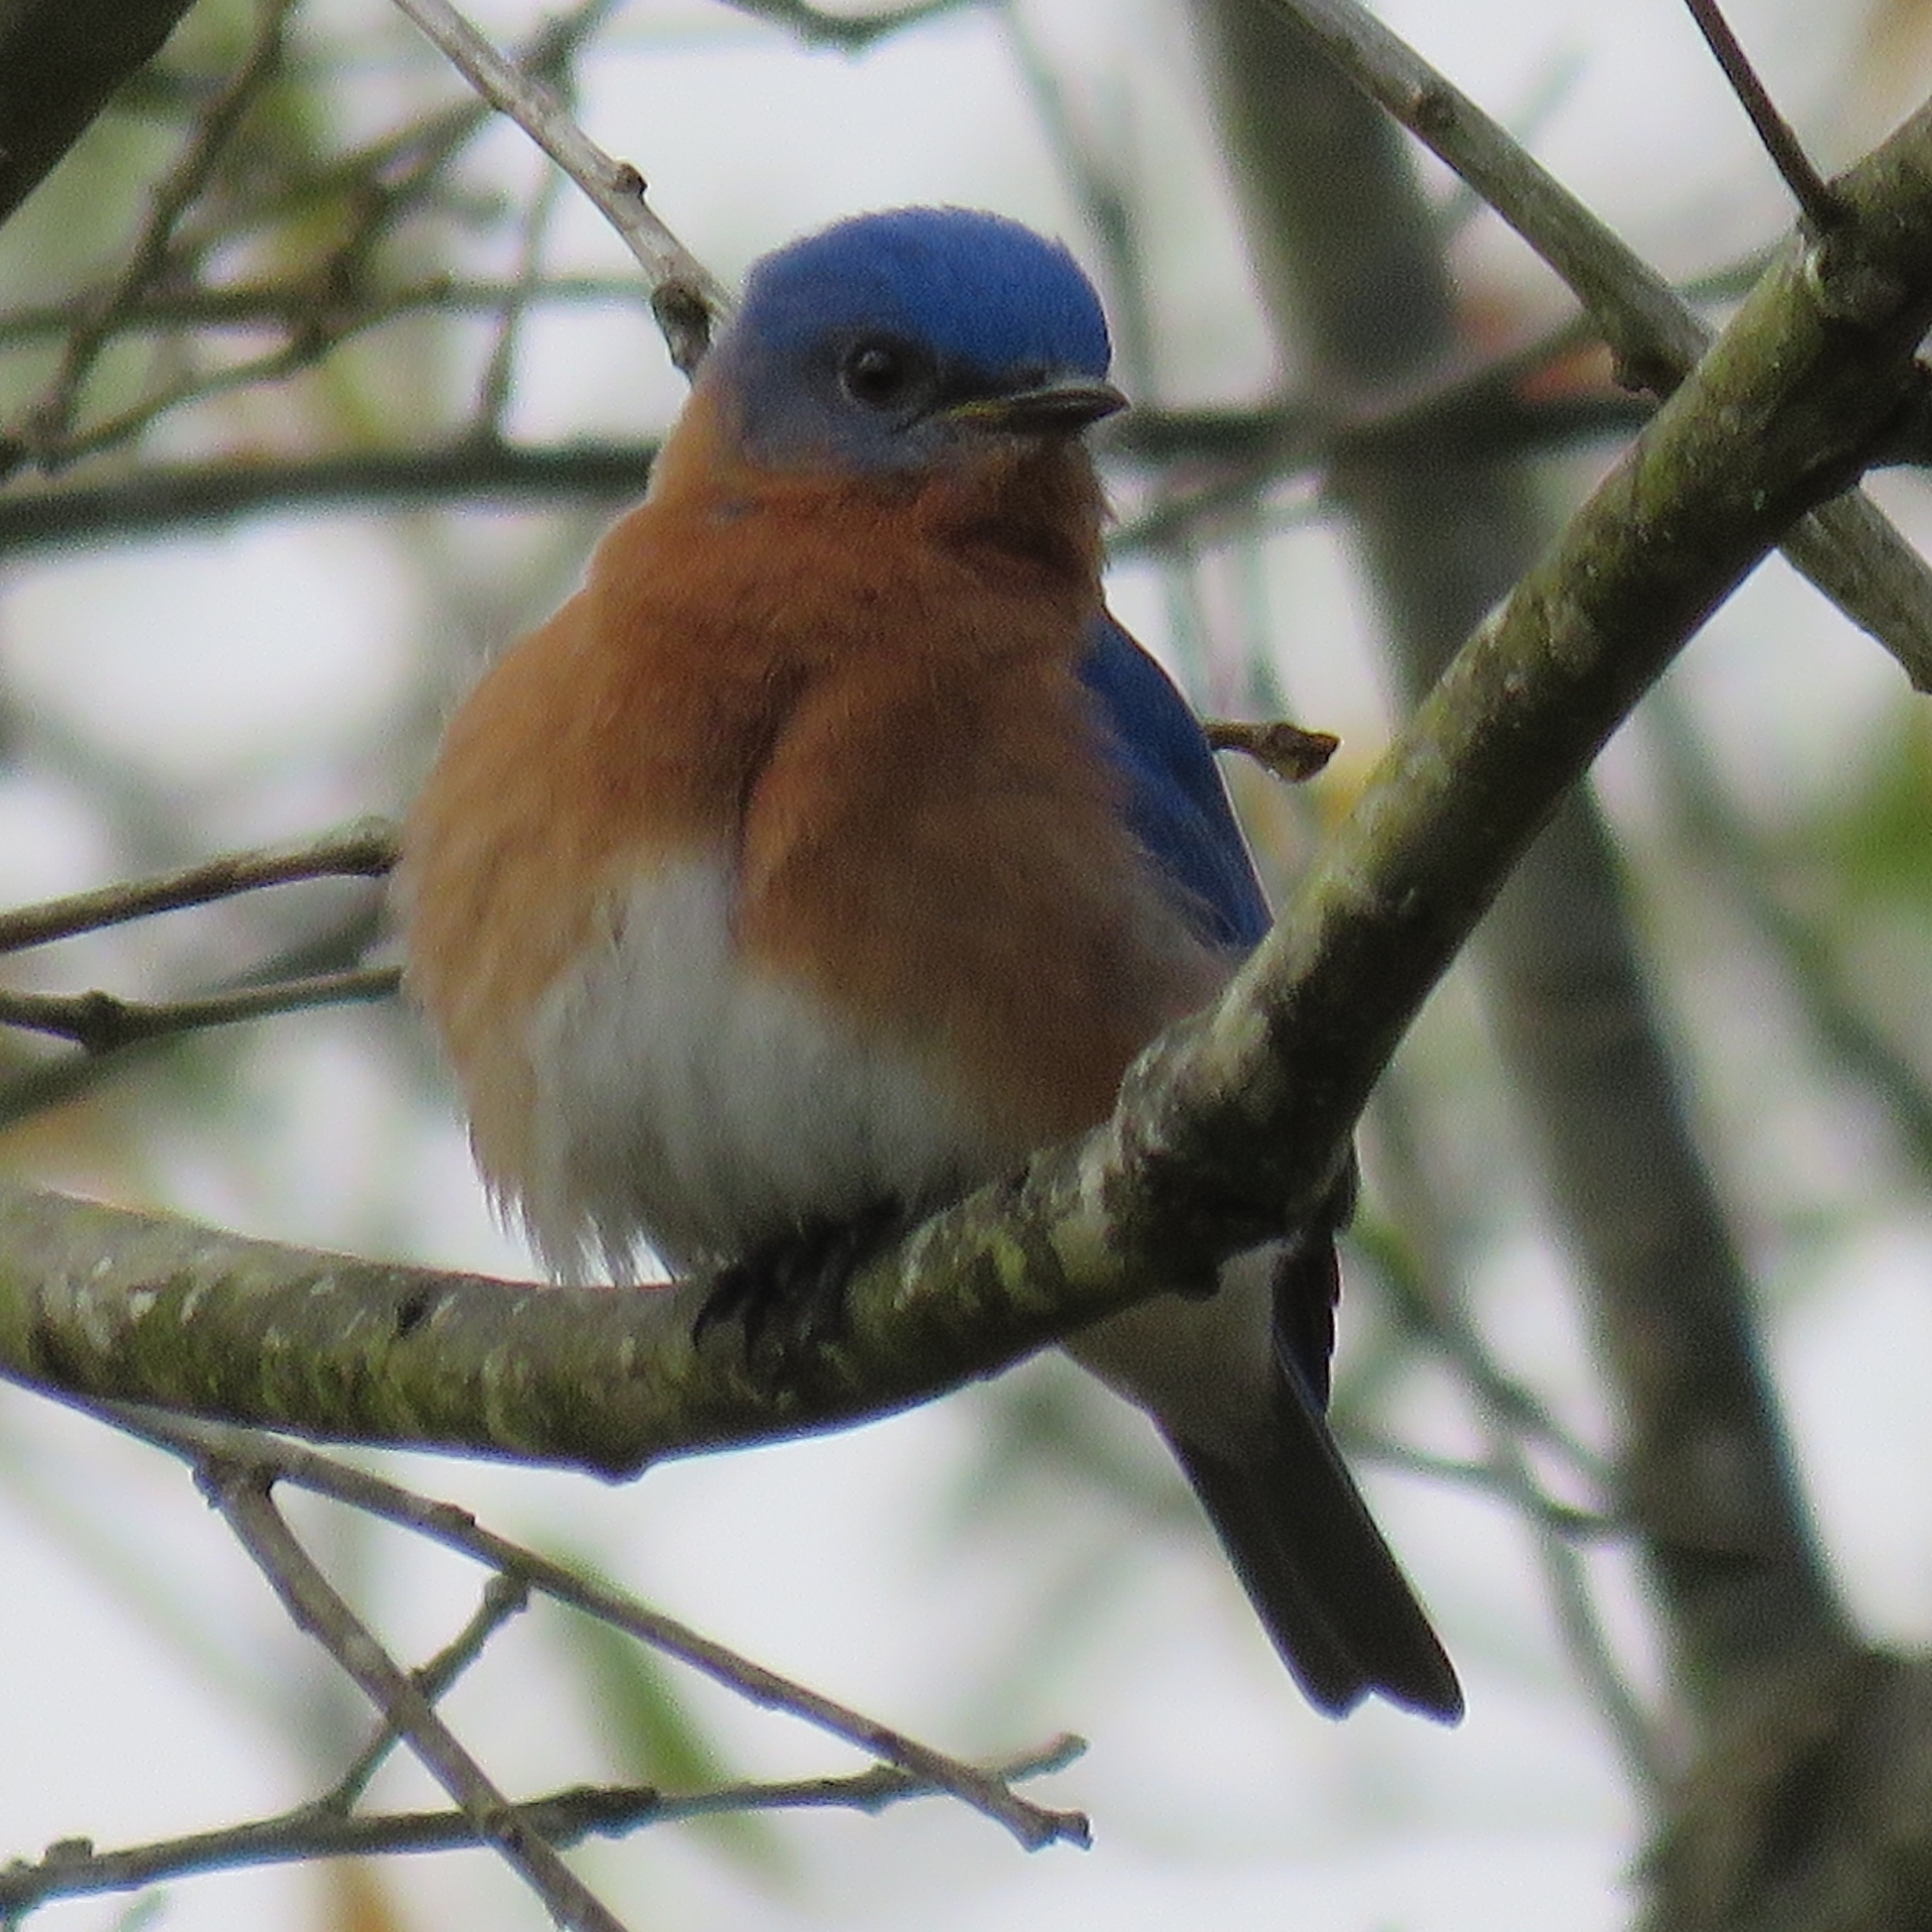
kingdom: Animalia
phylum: Chordata
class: Aves
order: Passeriformes
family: Turdidae
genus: Sialia
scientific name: Sialia sialis
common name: Eastern bluebird
